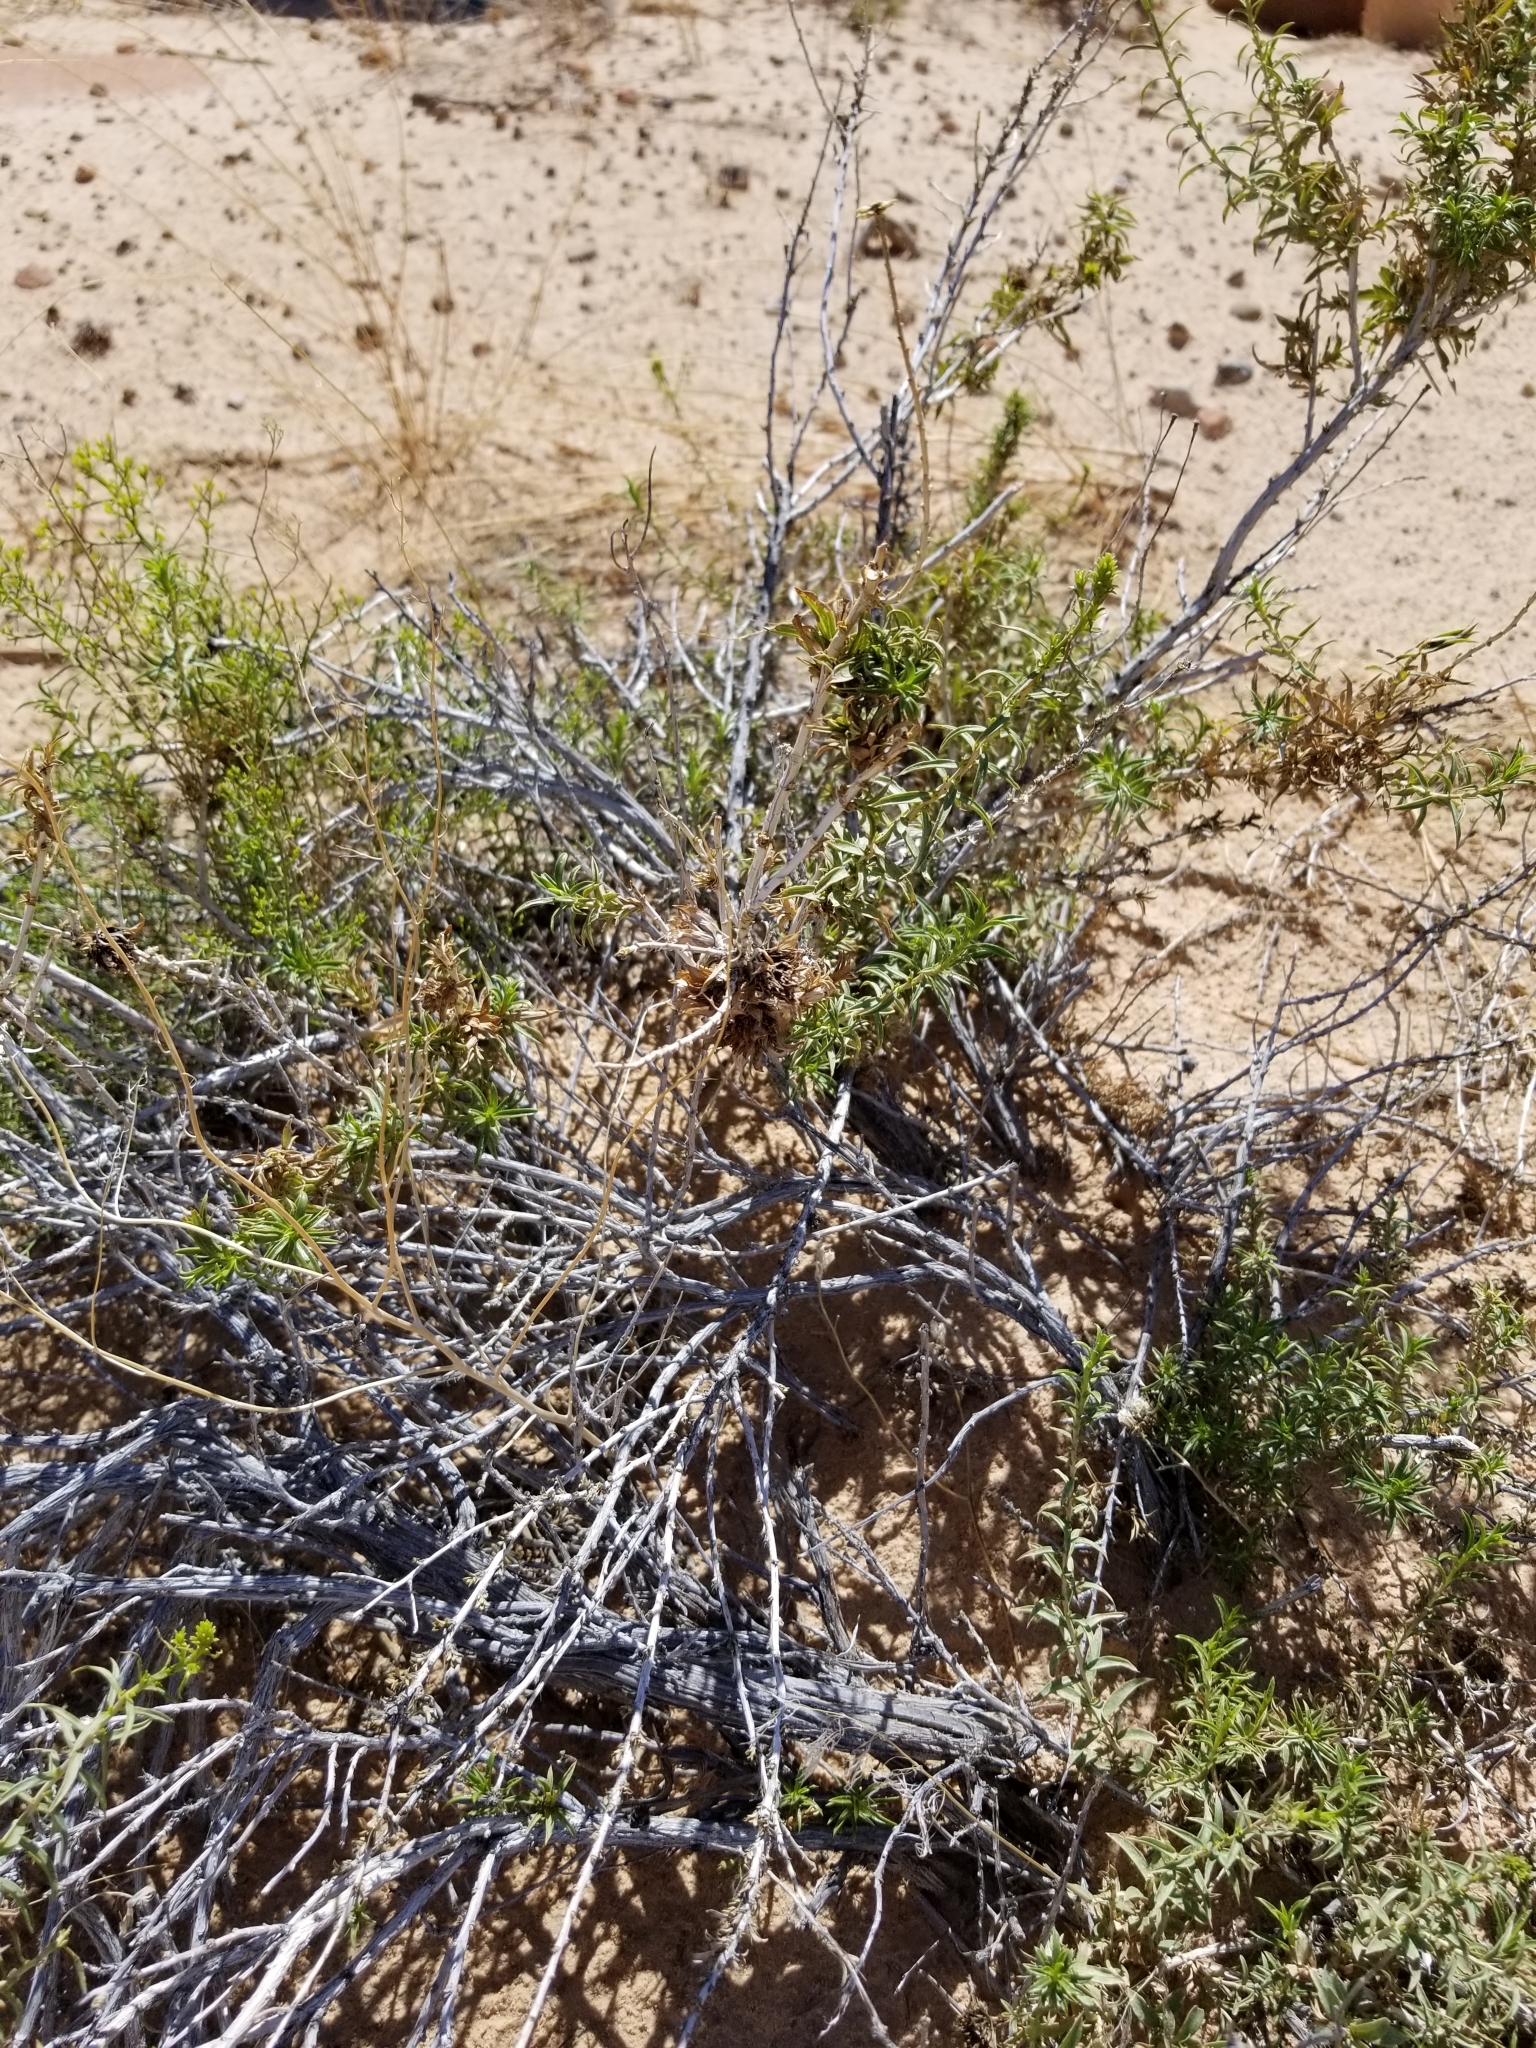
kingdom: Plantae
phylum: Tracheophyta
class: Magnoliopsida
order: Asterales
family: Asteraceae
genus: Chrysothamnus
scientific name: Chrysothamnus viscidiflorus
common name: Yellow rabbitbrush
